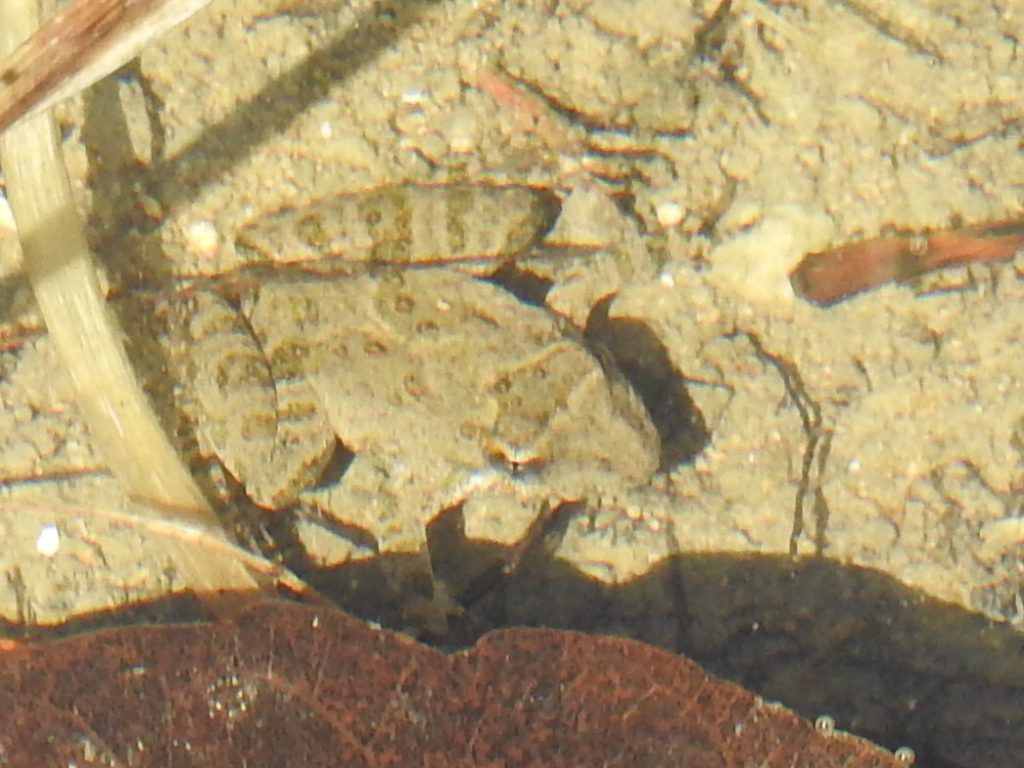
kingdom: Animalia
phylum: Chordata
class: Amphibia
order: Anura
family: Hylidae
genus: Acris
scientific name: Acris blanchardi
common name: Blanchard's cricket frog
